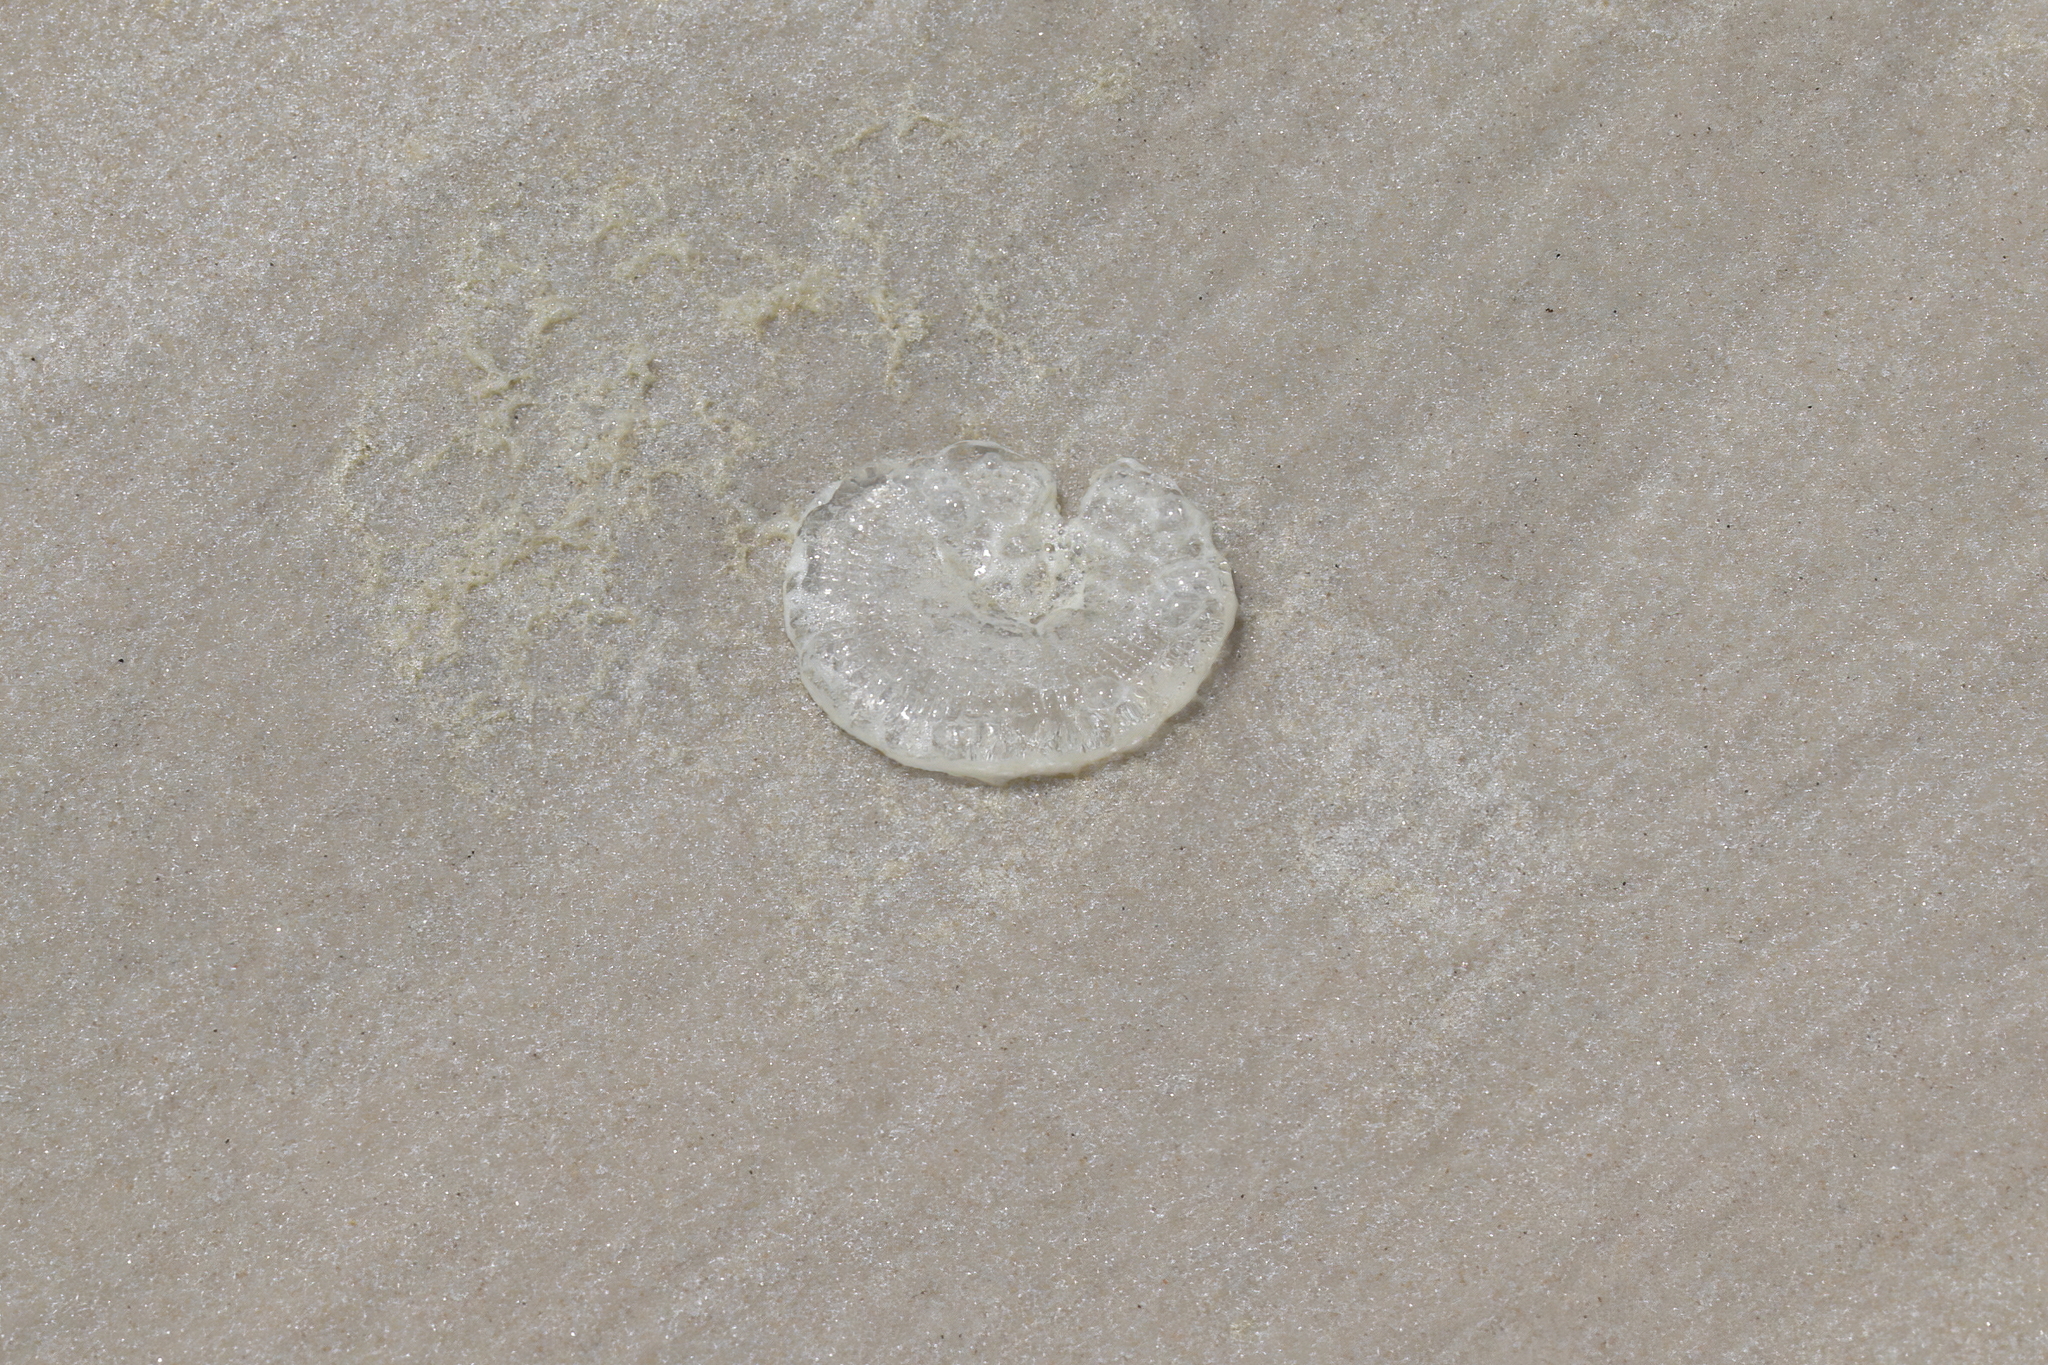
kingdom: Animalia
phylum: Cnidaria
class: Hydrozoa
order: Leptothecata
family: Aequoreidae
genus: Rhacostoma
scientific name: Rhacostoma atlanticum
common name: Lined water jelly
